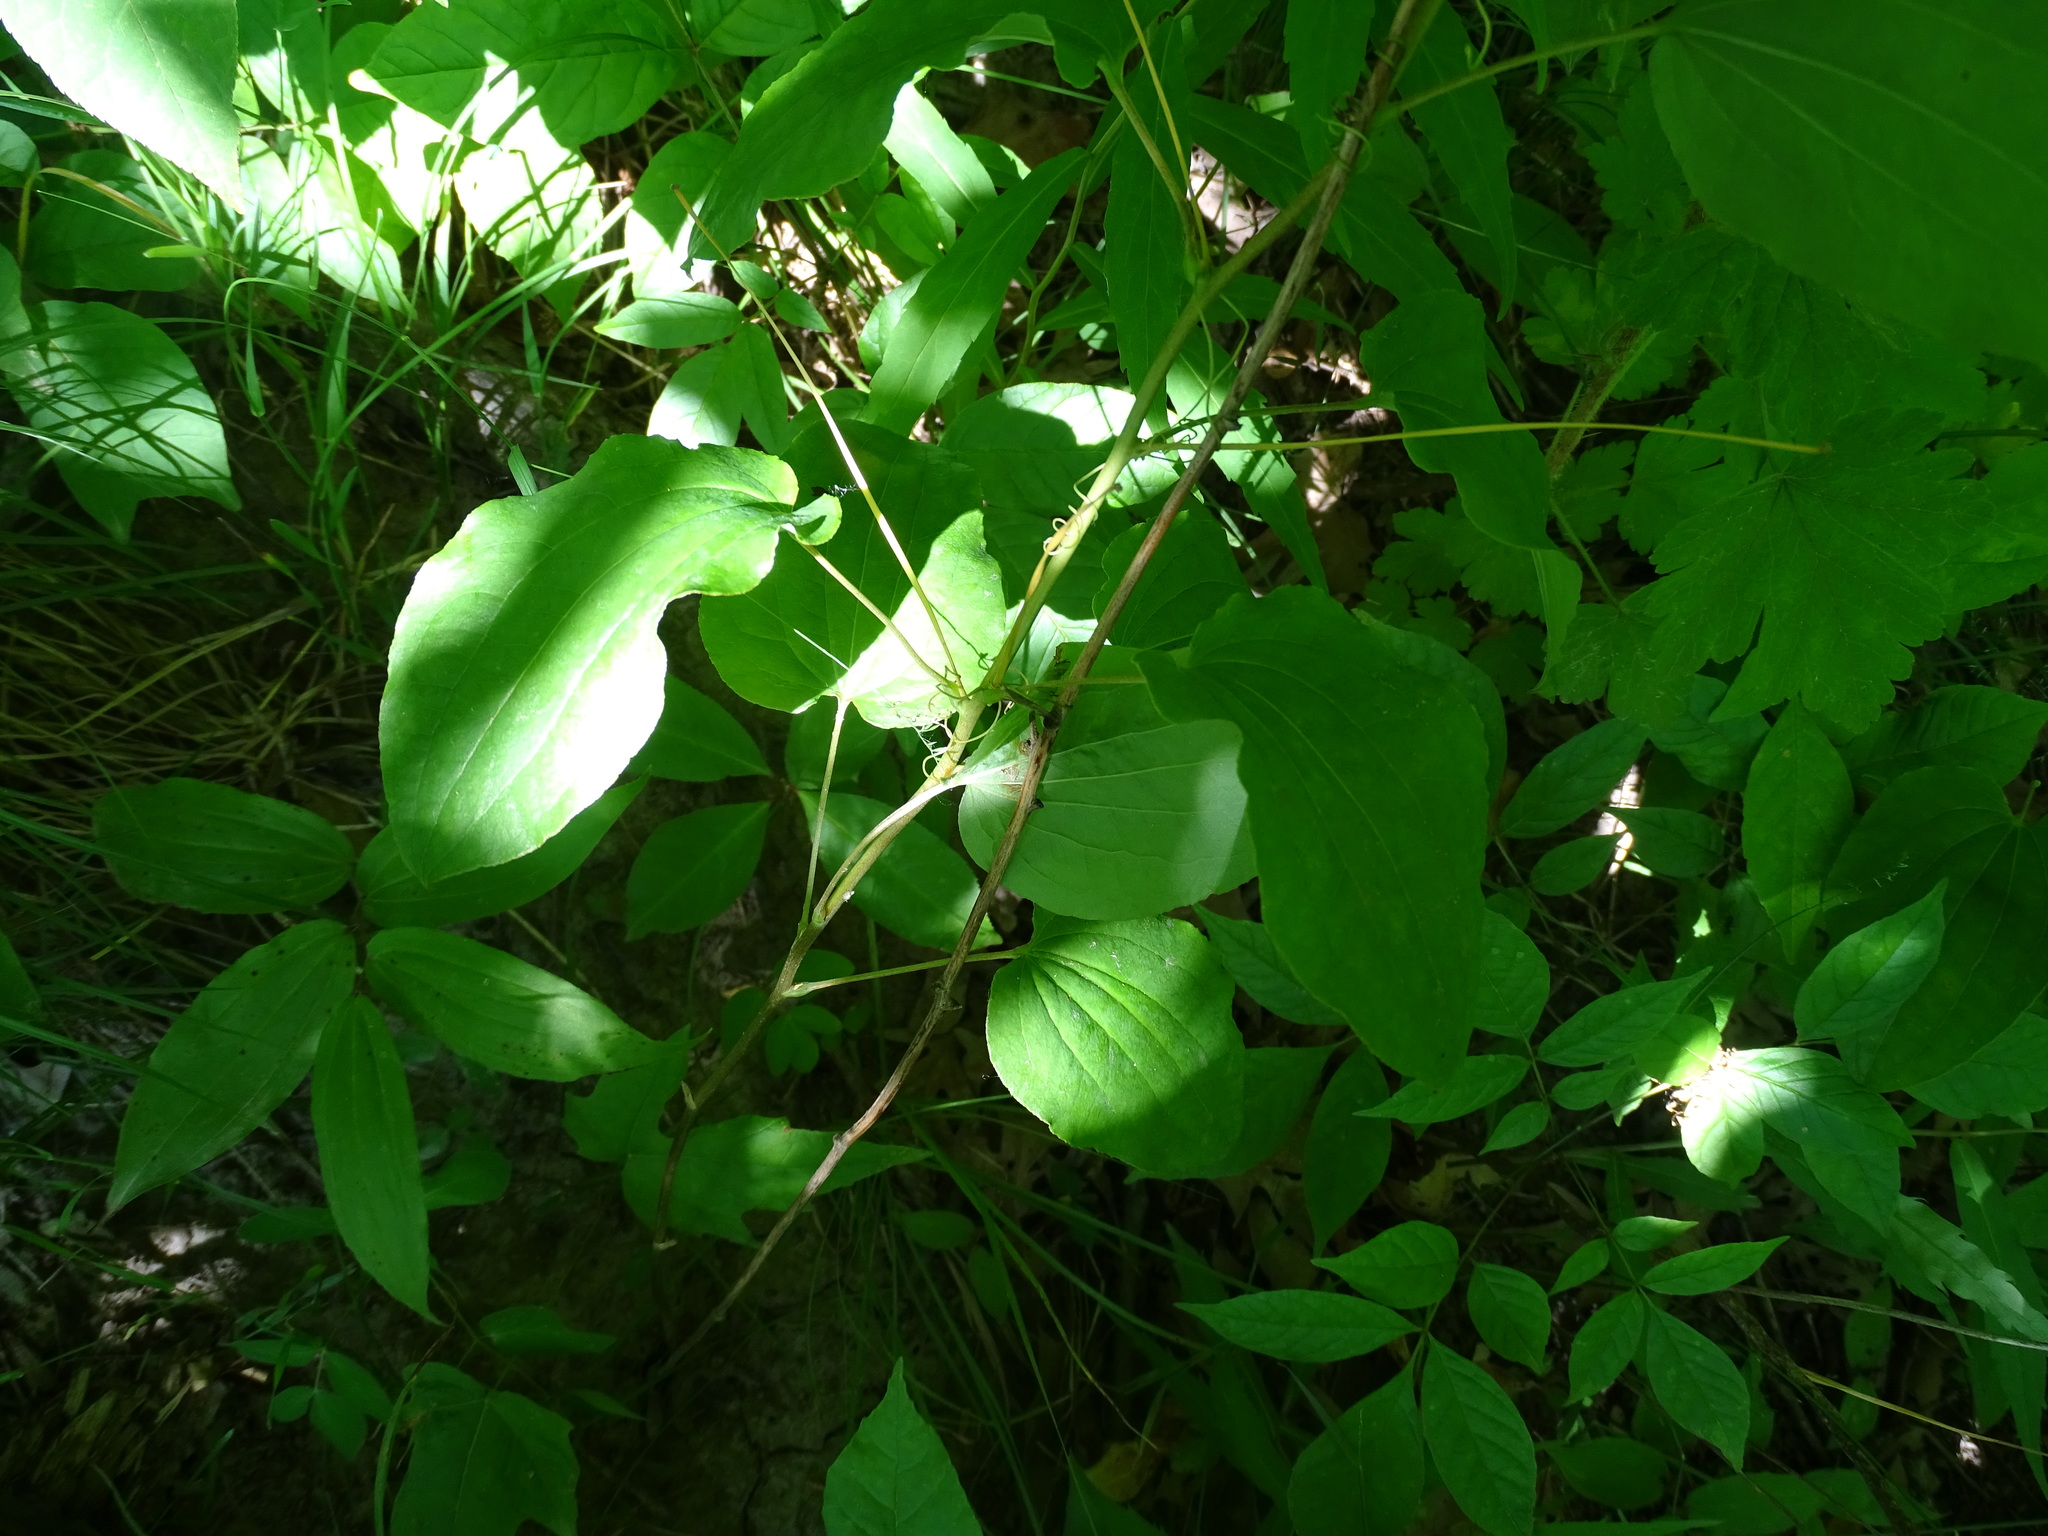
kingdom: Plantae
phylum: Tracheophyta
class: Liliopsida
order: Liliales
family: Smilacaceae
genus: Smilax
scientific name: Smilax herbacea
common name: Jacob's-ladder
